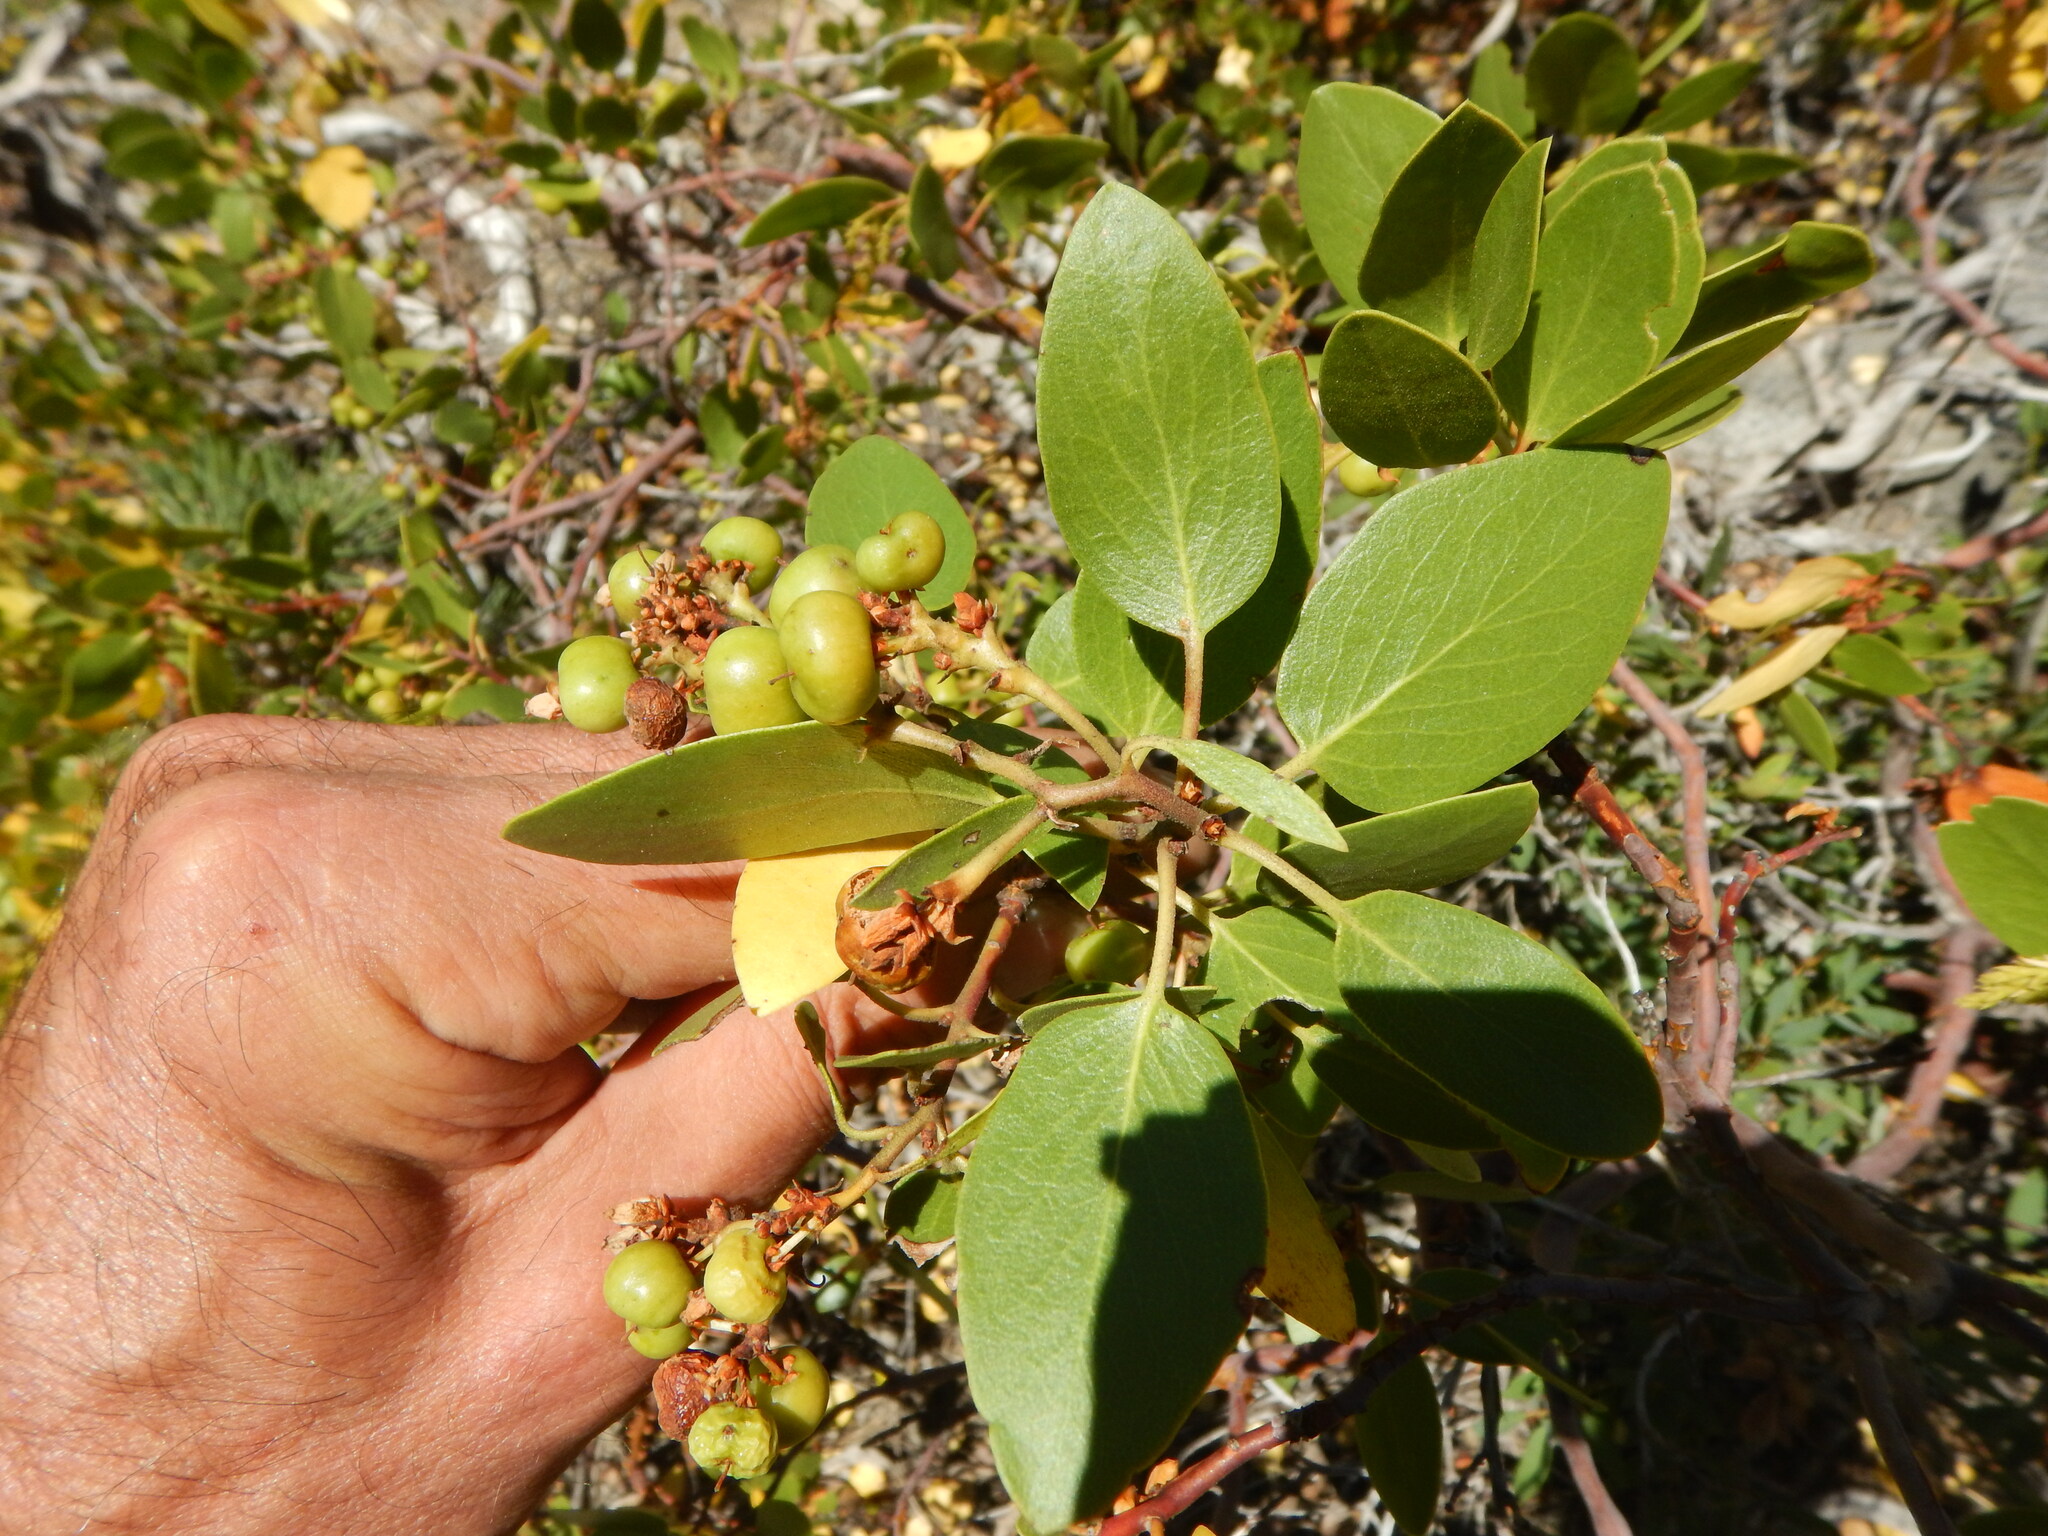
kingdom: Plantae
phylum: Tracheophyta
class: Magnoliopsida
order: Ericales
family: Ericaceae
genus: Arctostaphylos
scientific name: Arctostaphylos patula
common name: Green-leaf manzanita
